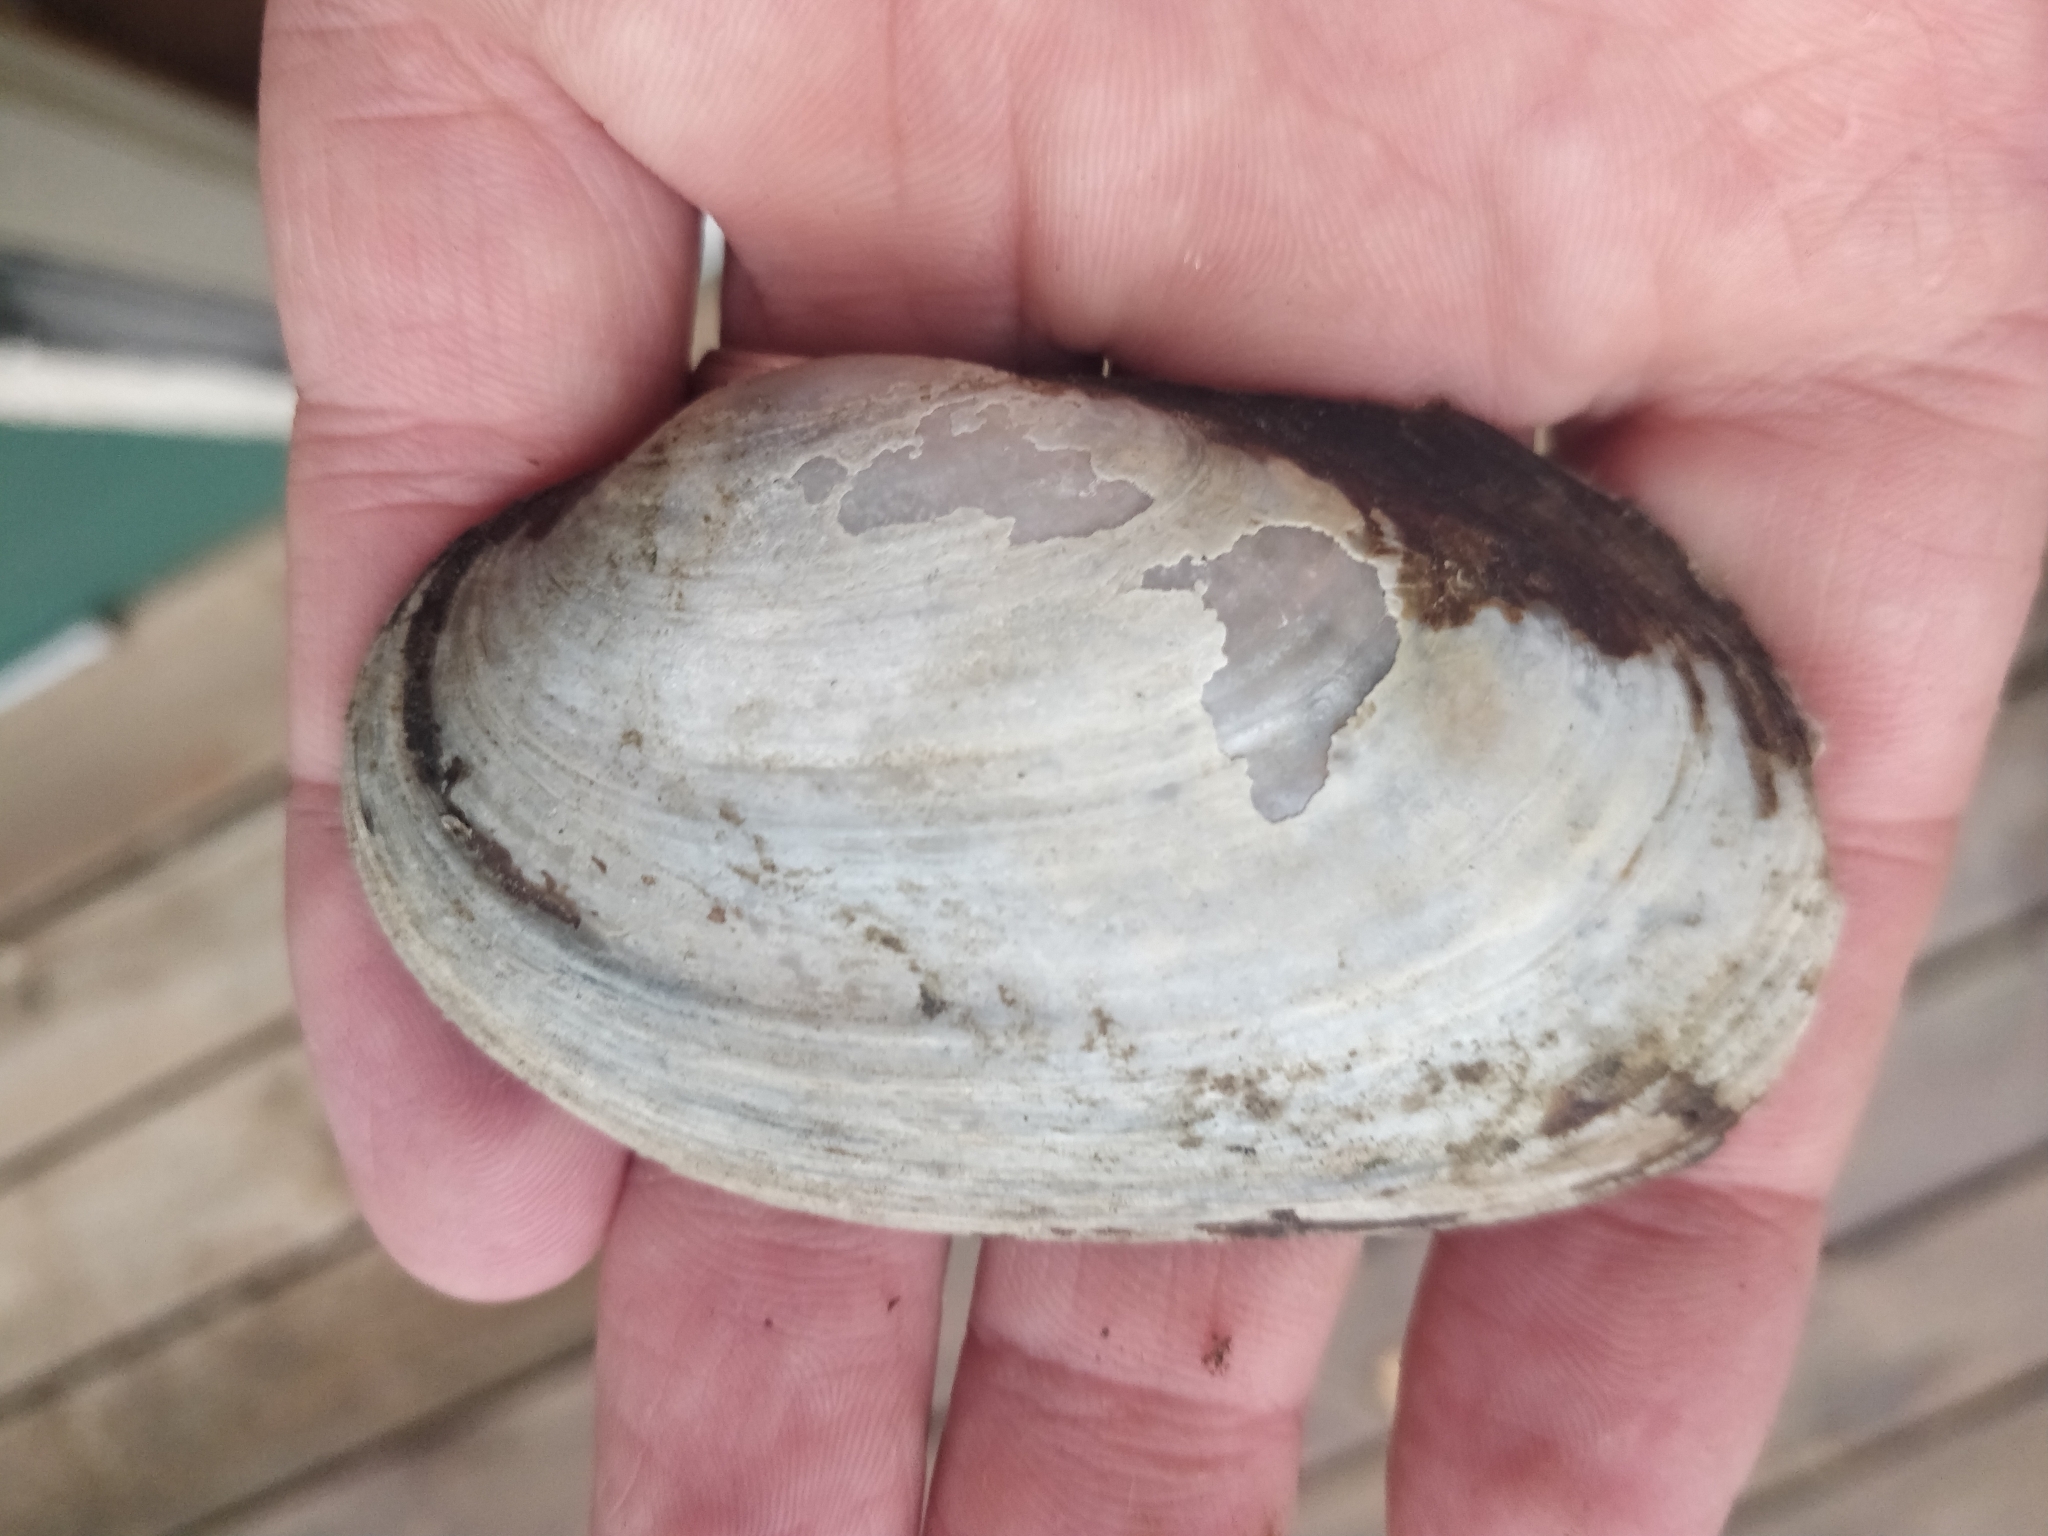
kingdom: Animalia
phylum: Mollusca
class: Bivalvia
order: Unionida
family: Unionidae
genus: Lampsilis
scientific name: Lampsilis siliquoidea
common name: Fatmucket
